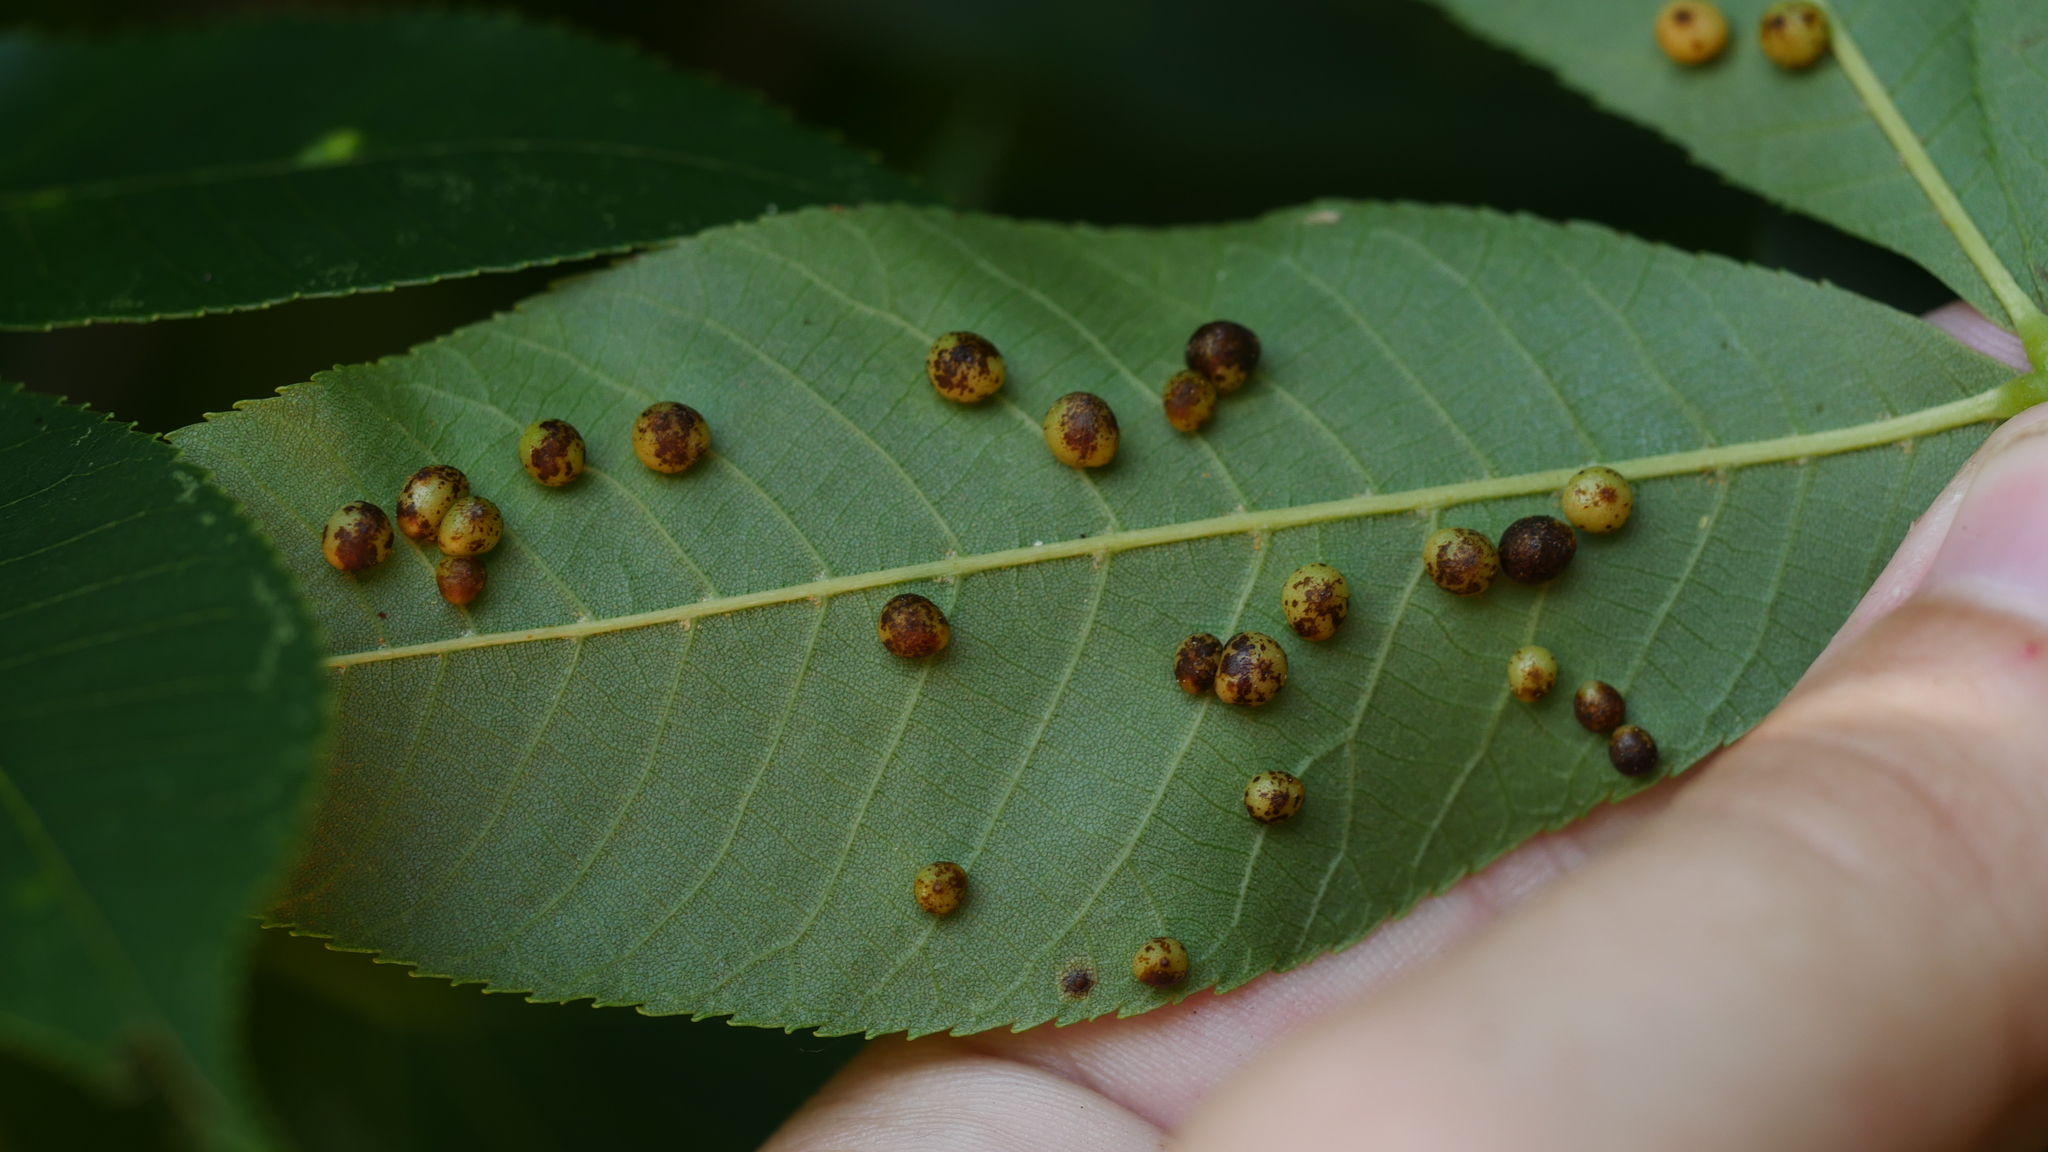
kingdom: Animalia
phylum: Arthropoda
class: Insecta
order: Diptera
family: Cecidomyiidae
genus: Caryomyia
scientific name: Caryomyia caryae
